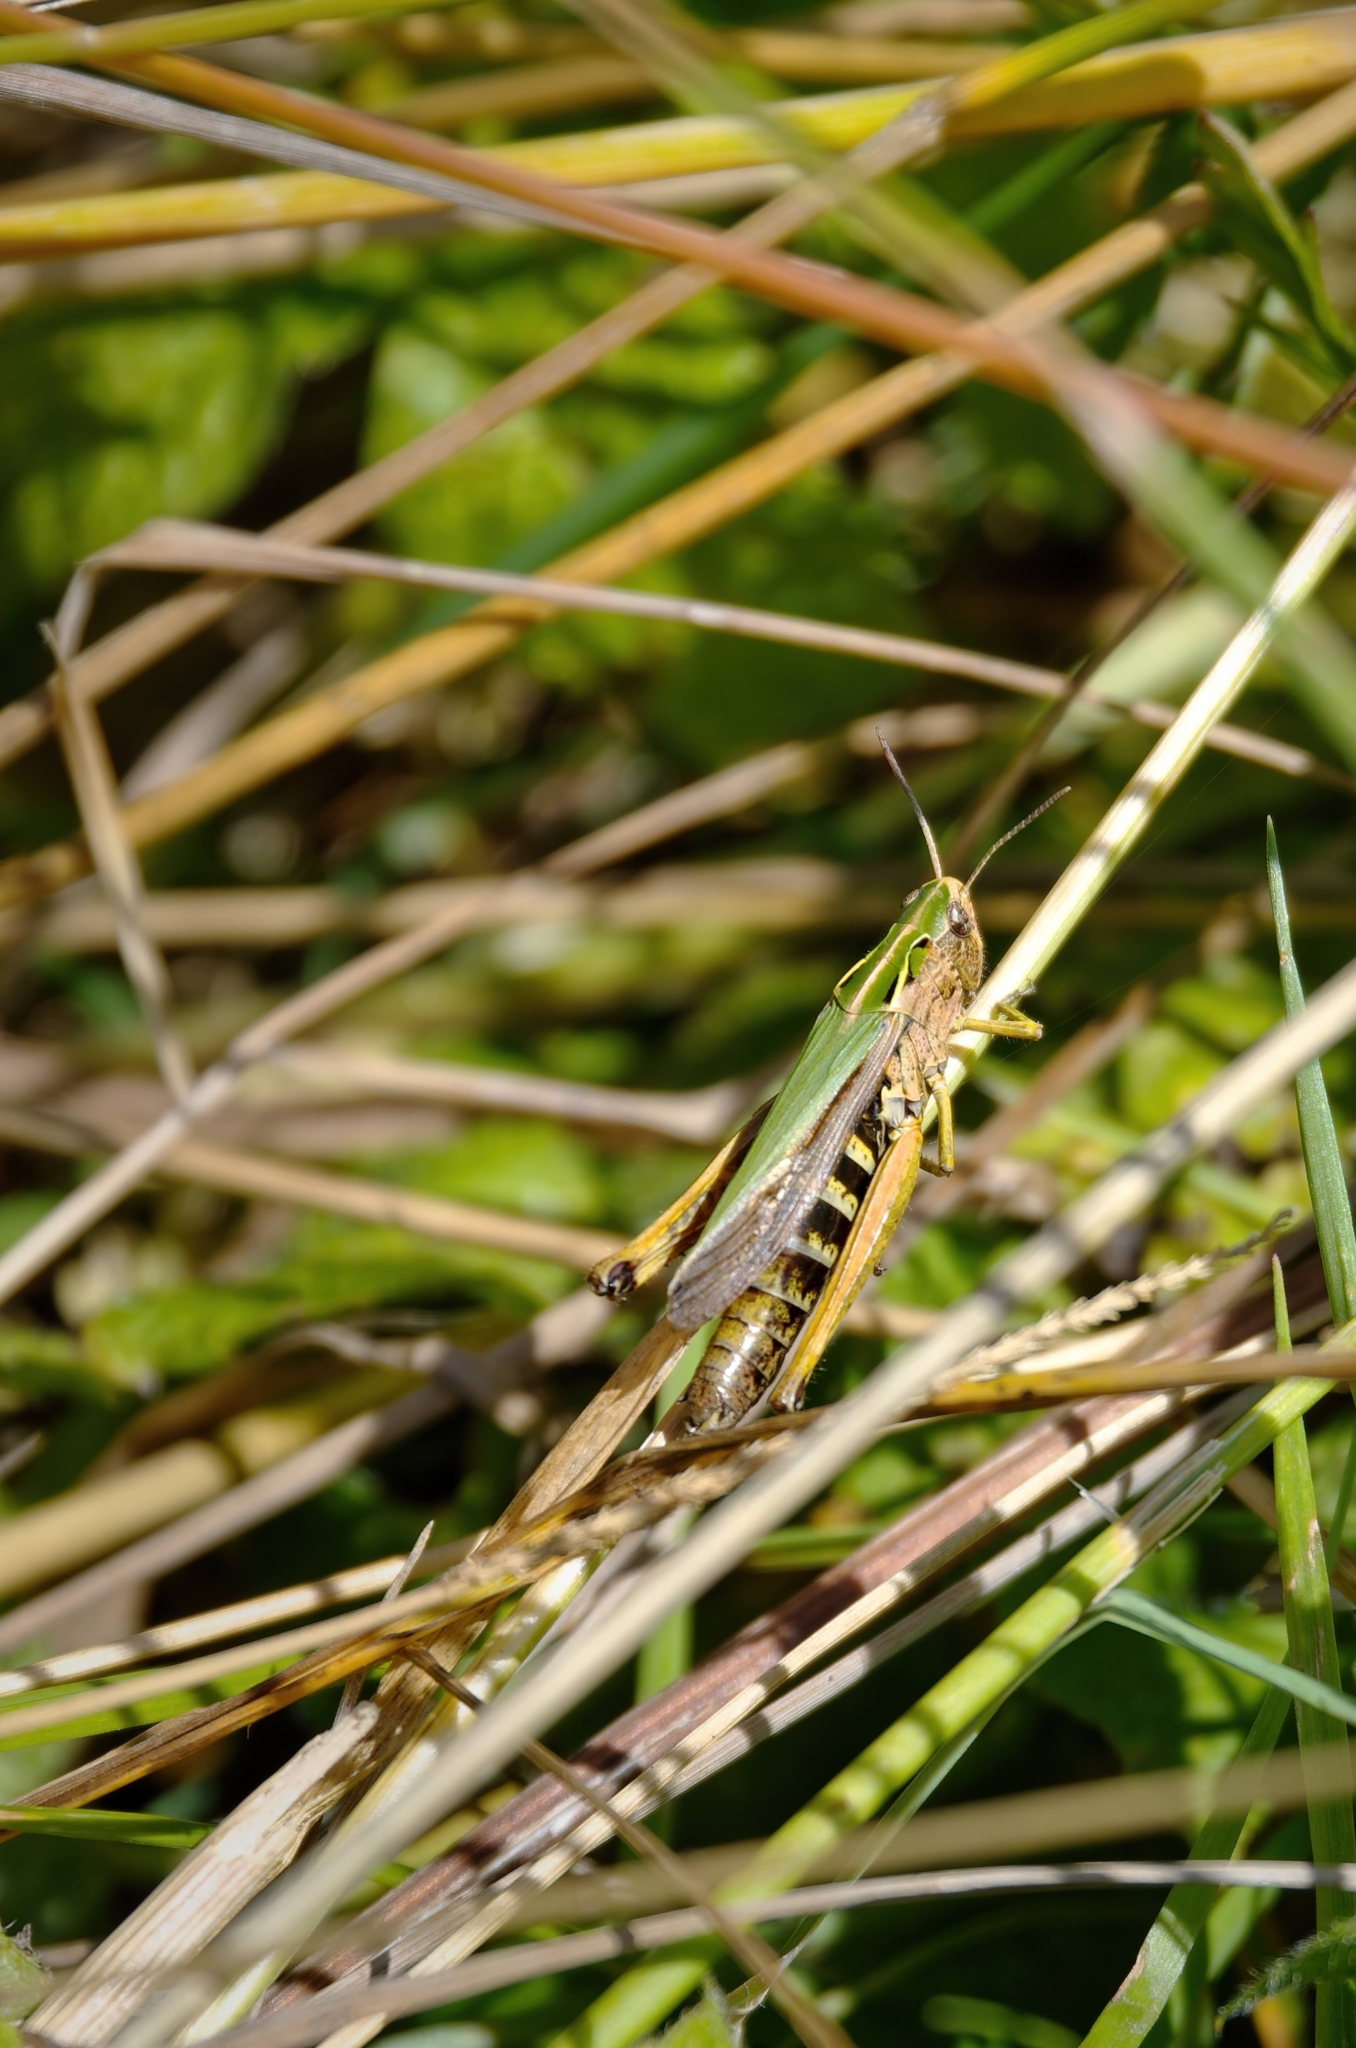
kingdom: Animalia
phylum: Arthropoda
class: Insecta
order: Orthoptera
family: Acrididae
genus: Omocestus
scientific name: Omocestus viridulus
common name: Common green grasshopper
